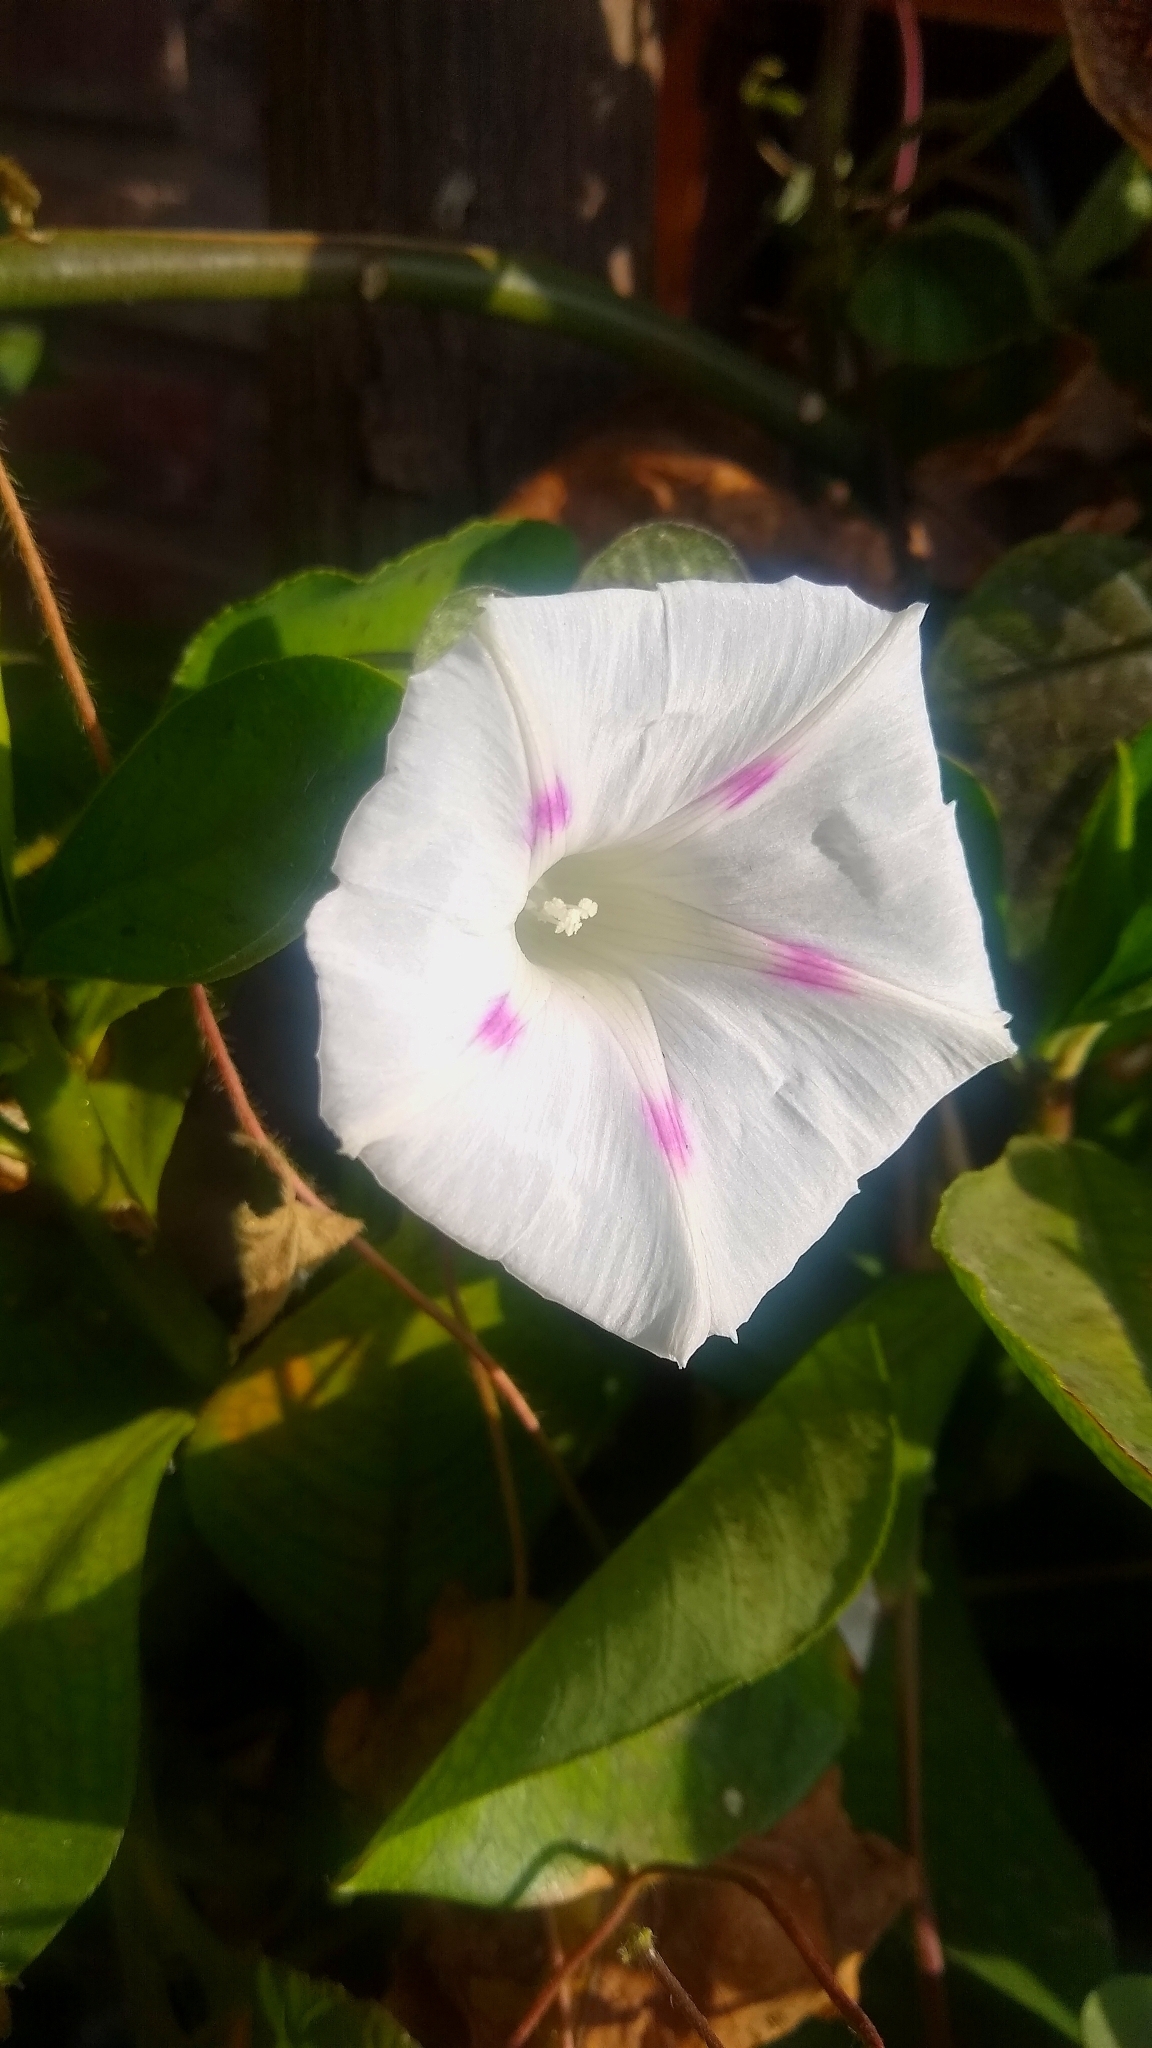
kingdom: Plantae
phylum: Tracheophyta
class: Magnoliopsida
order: Solanales
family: Convolvulaceae
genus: Ipomoea
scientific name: Ipomoea purpurea
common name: Common morning-glory
